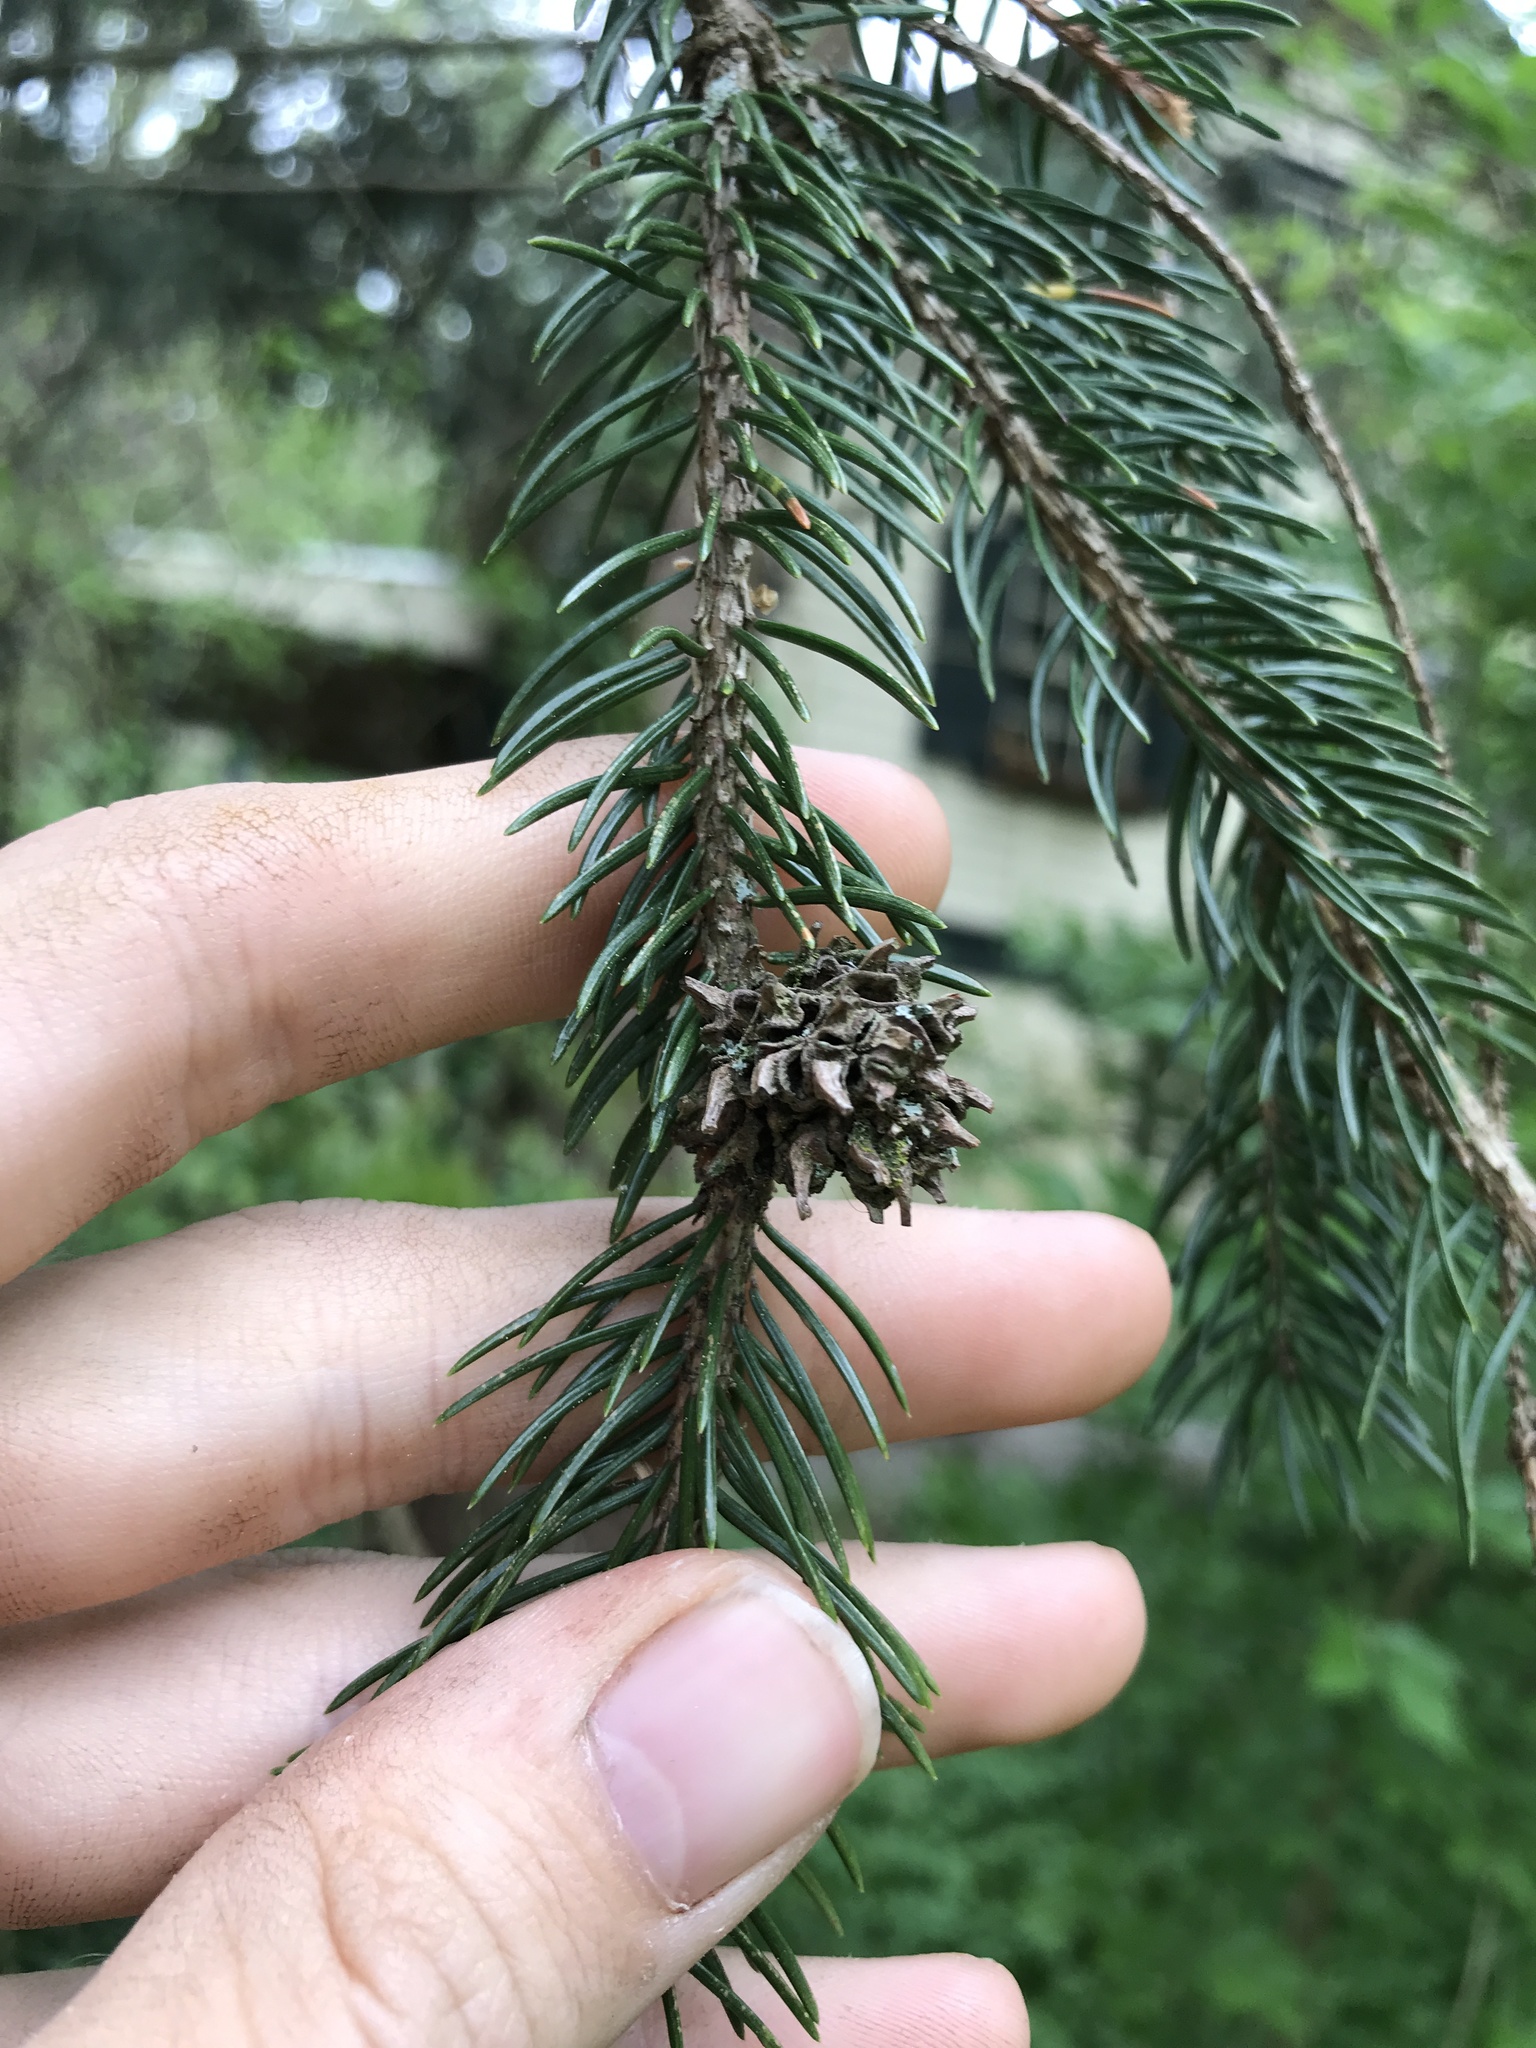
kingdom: Animalia
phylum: Arthropoda
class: Insecta
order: Hemiptera
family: Adelgidae
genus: Adelges
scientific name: Adelges abietis
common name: Eastern spruce gall adelgid
